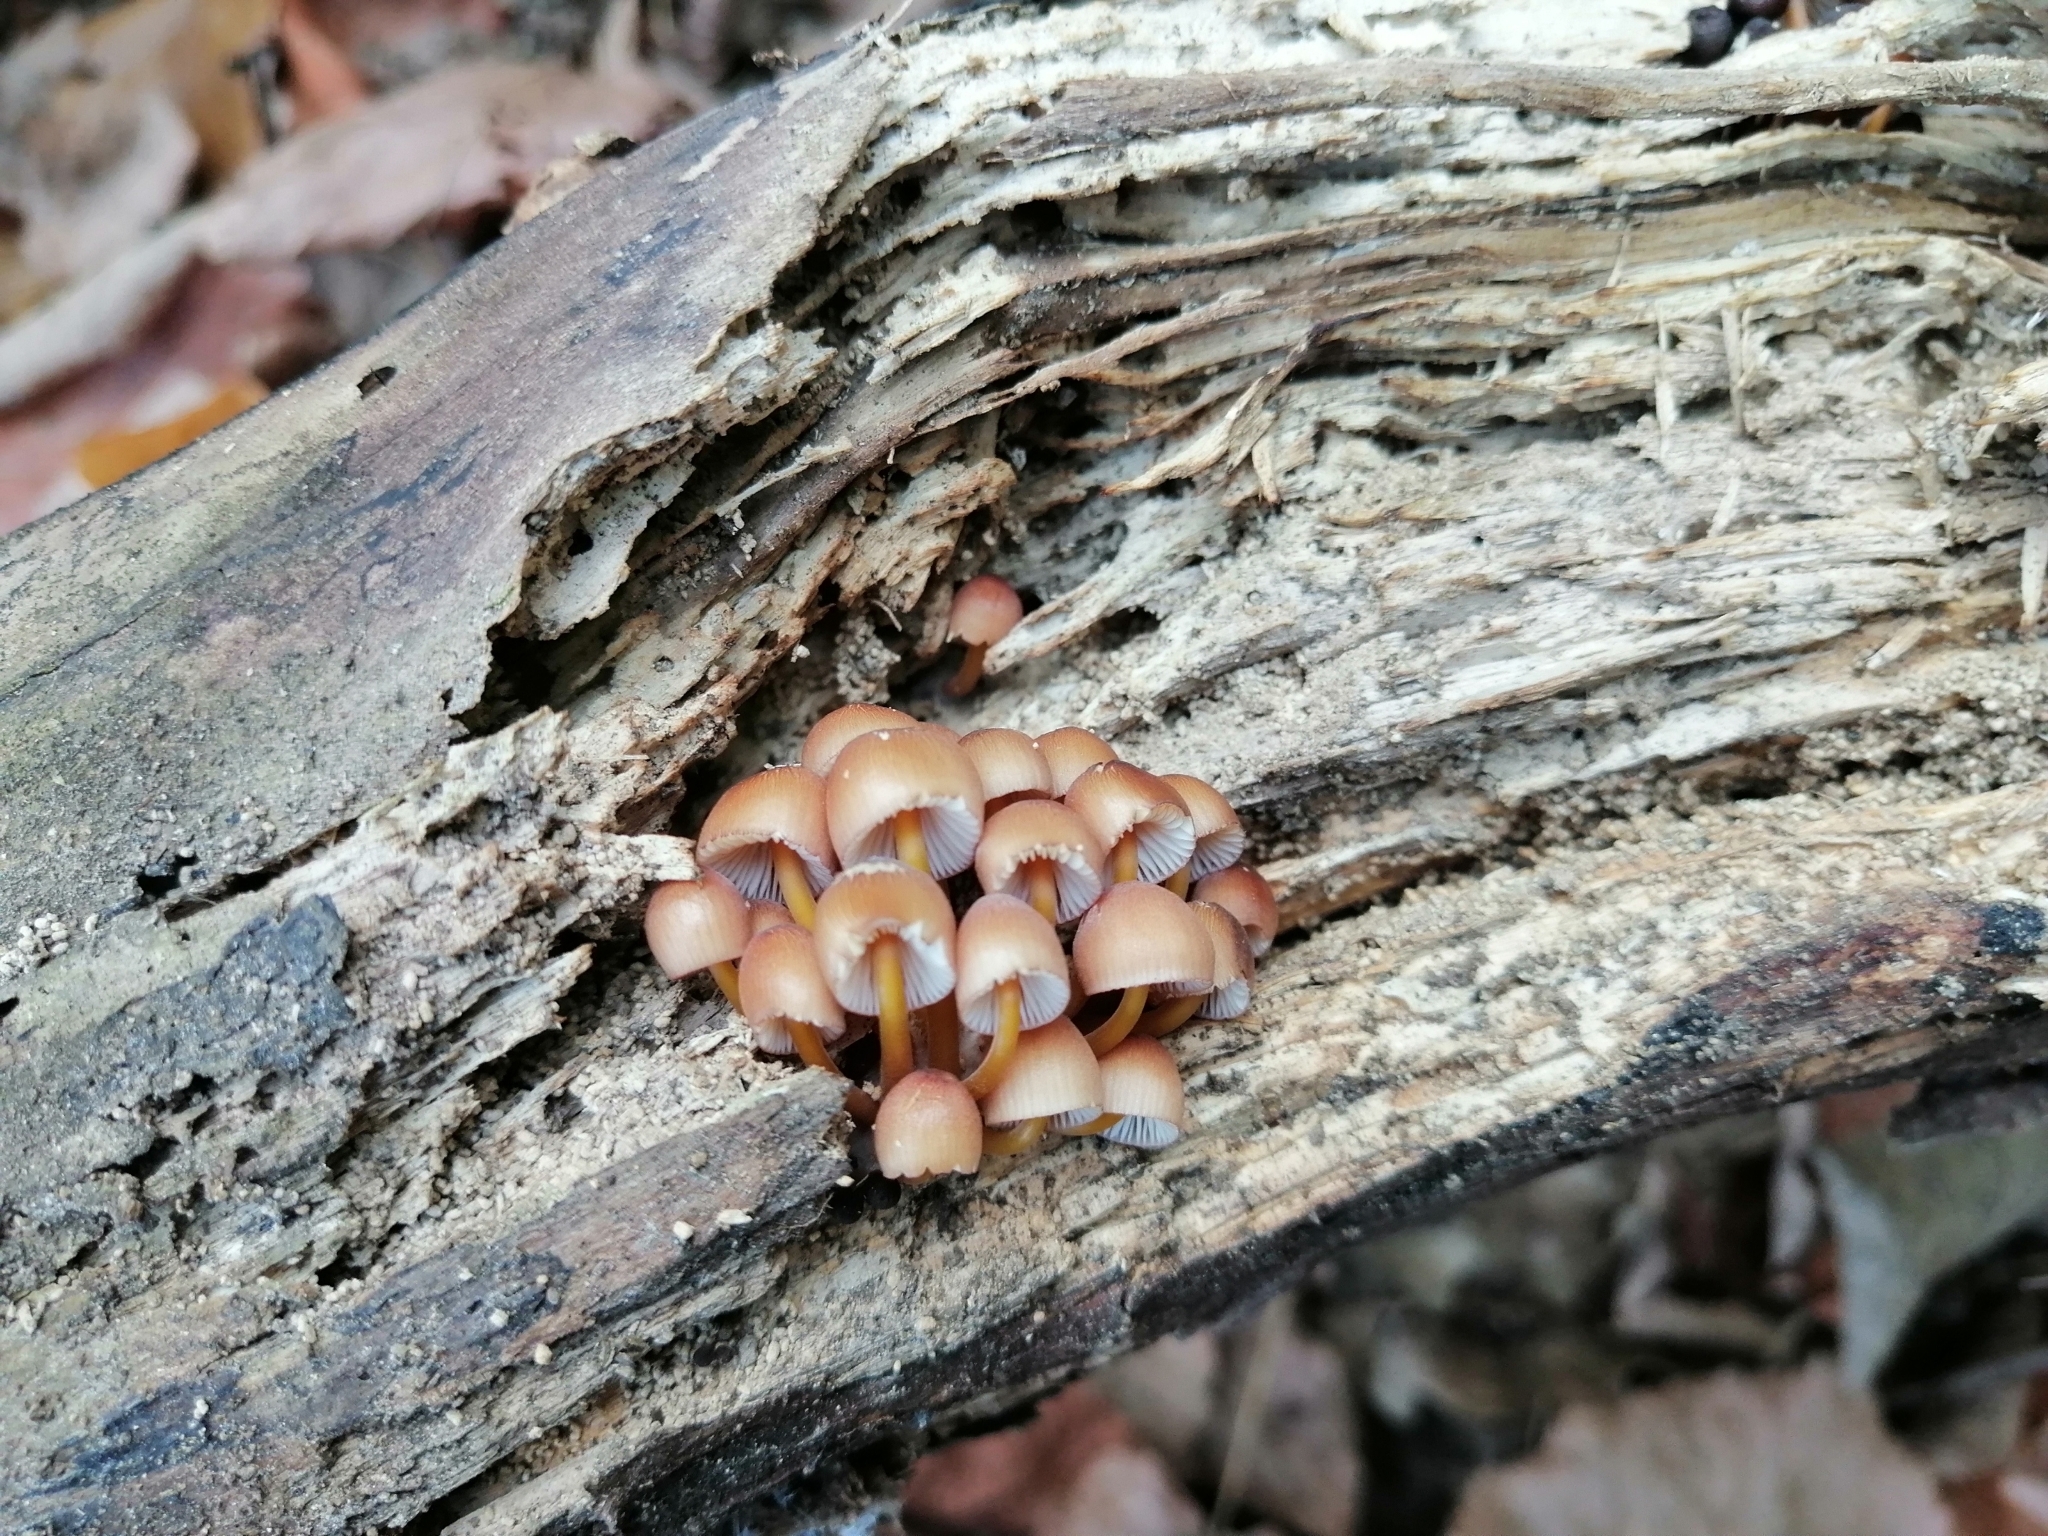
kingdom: Fungi
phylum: Basidiomycota
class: Agaricomycetes
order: Agaricales
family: Mycenaceae
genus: Mycena
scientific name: Mycena renati
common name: Beautiful bonnet
